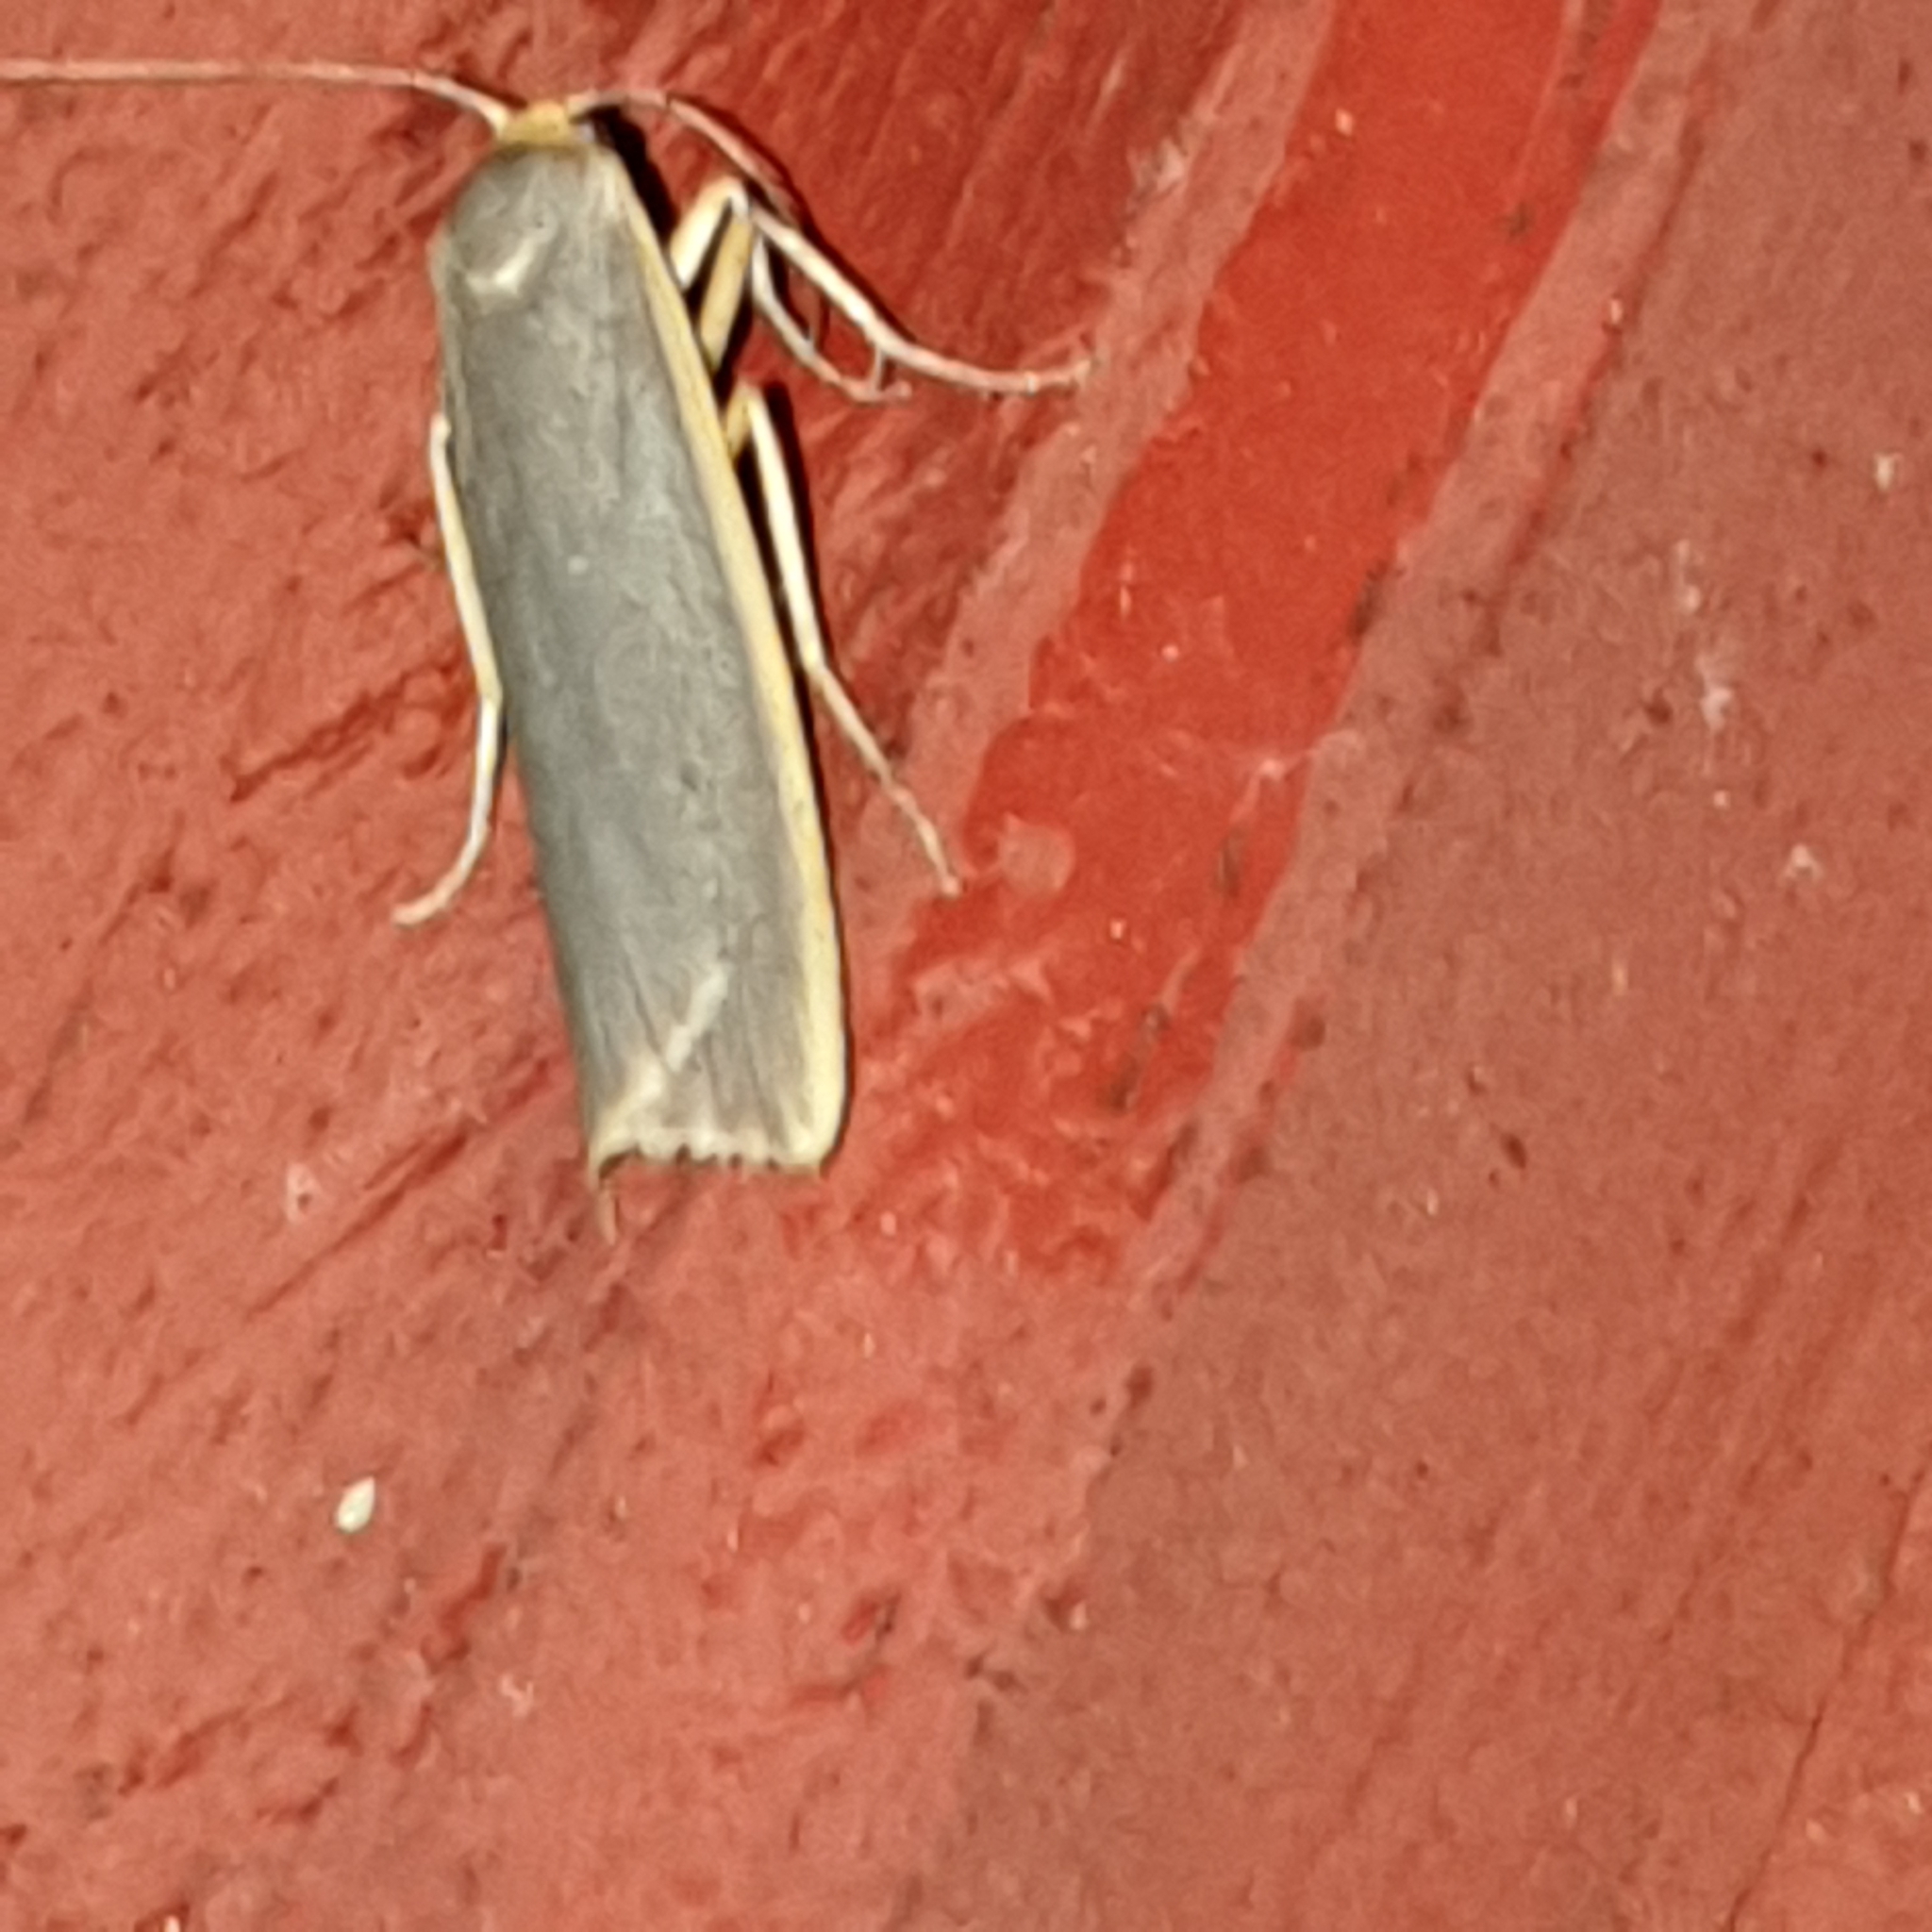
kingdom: Animalia
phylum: Arthropoda
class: Insecta
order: Lepidoptera
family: Erebidae
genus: Nyea
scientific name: Nyea lurideola
